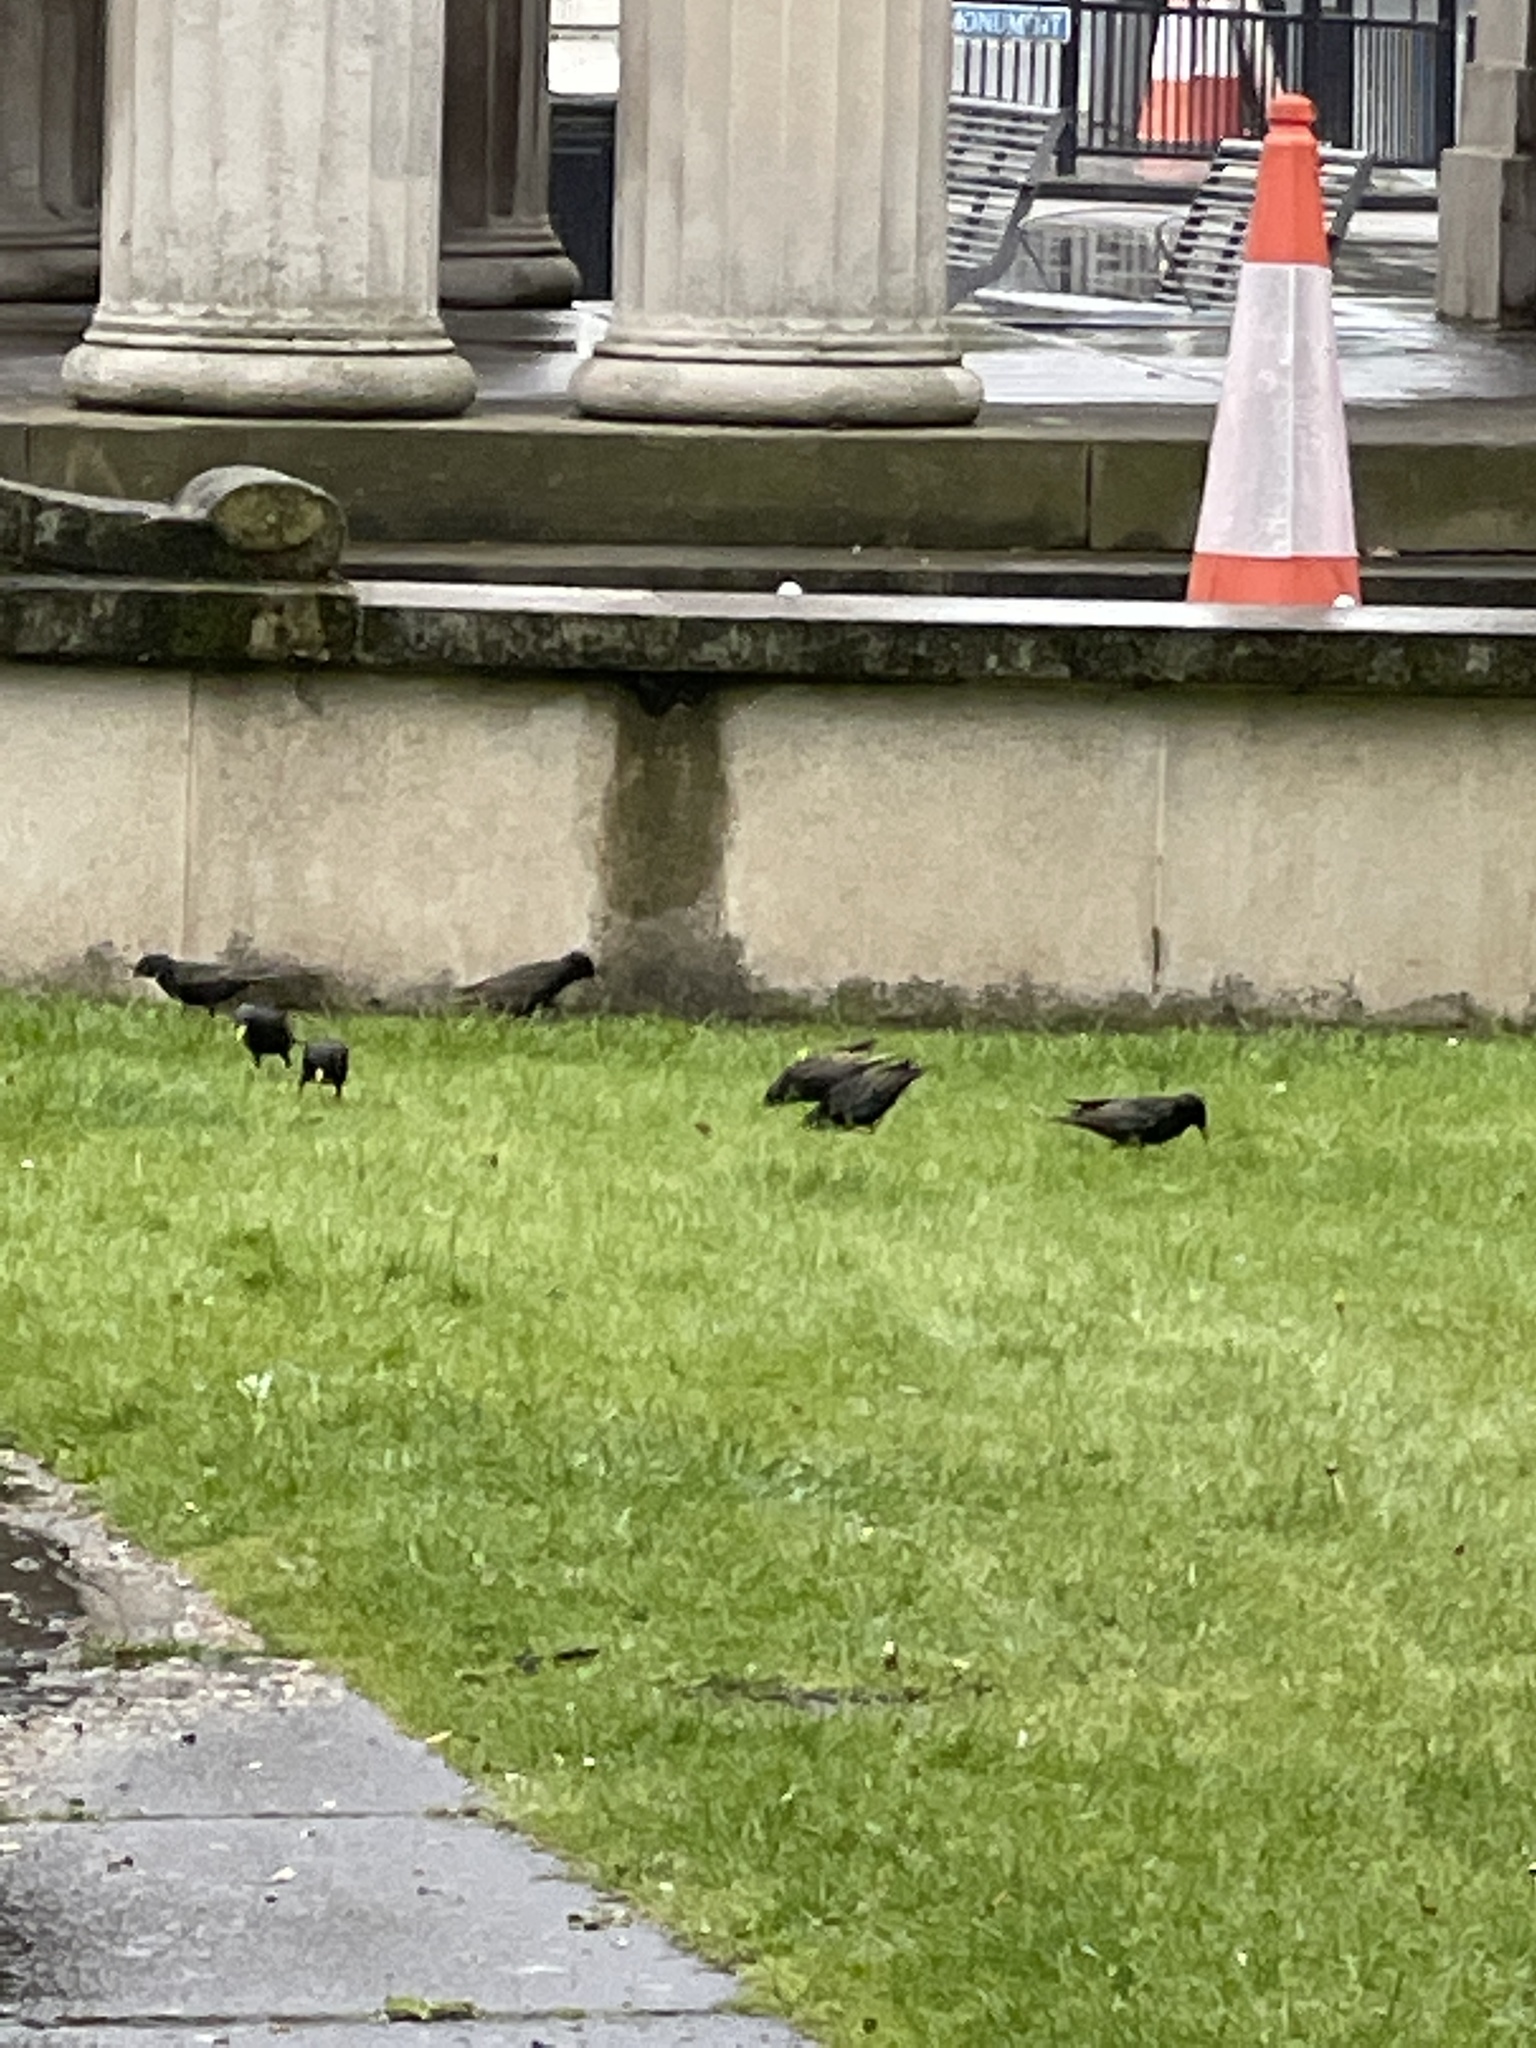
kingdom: Animalia
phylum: Chordata
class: Aves
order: Passeriformes
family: Sturnidae
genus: Sturnus
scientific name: Sturnus vulgaris
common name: Common starling
